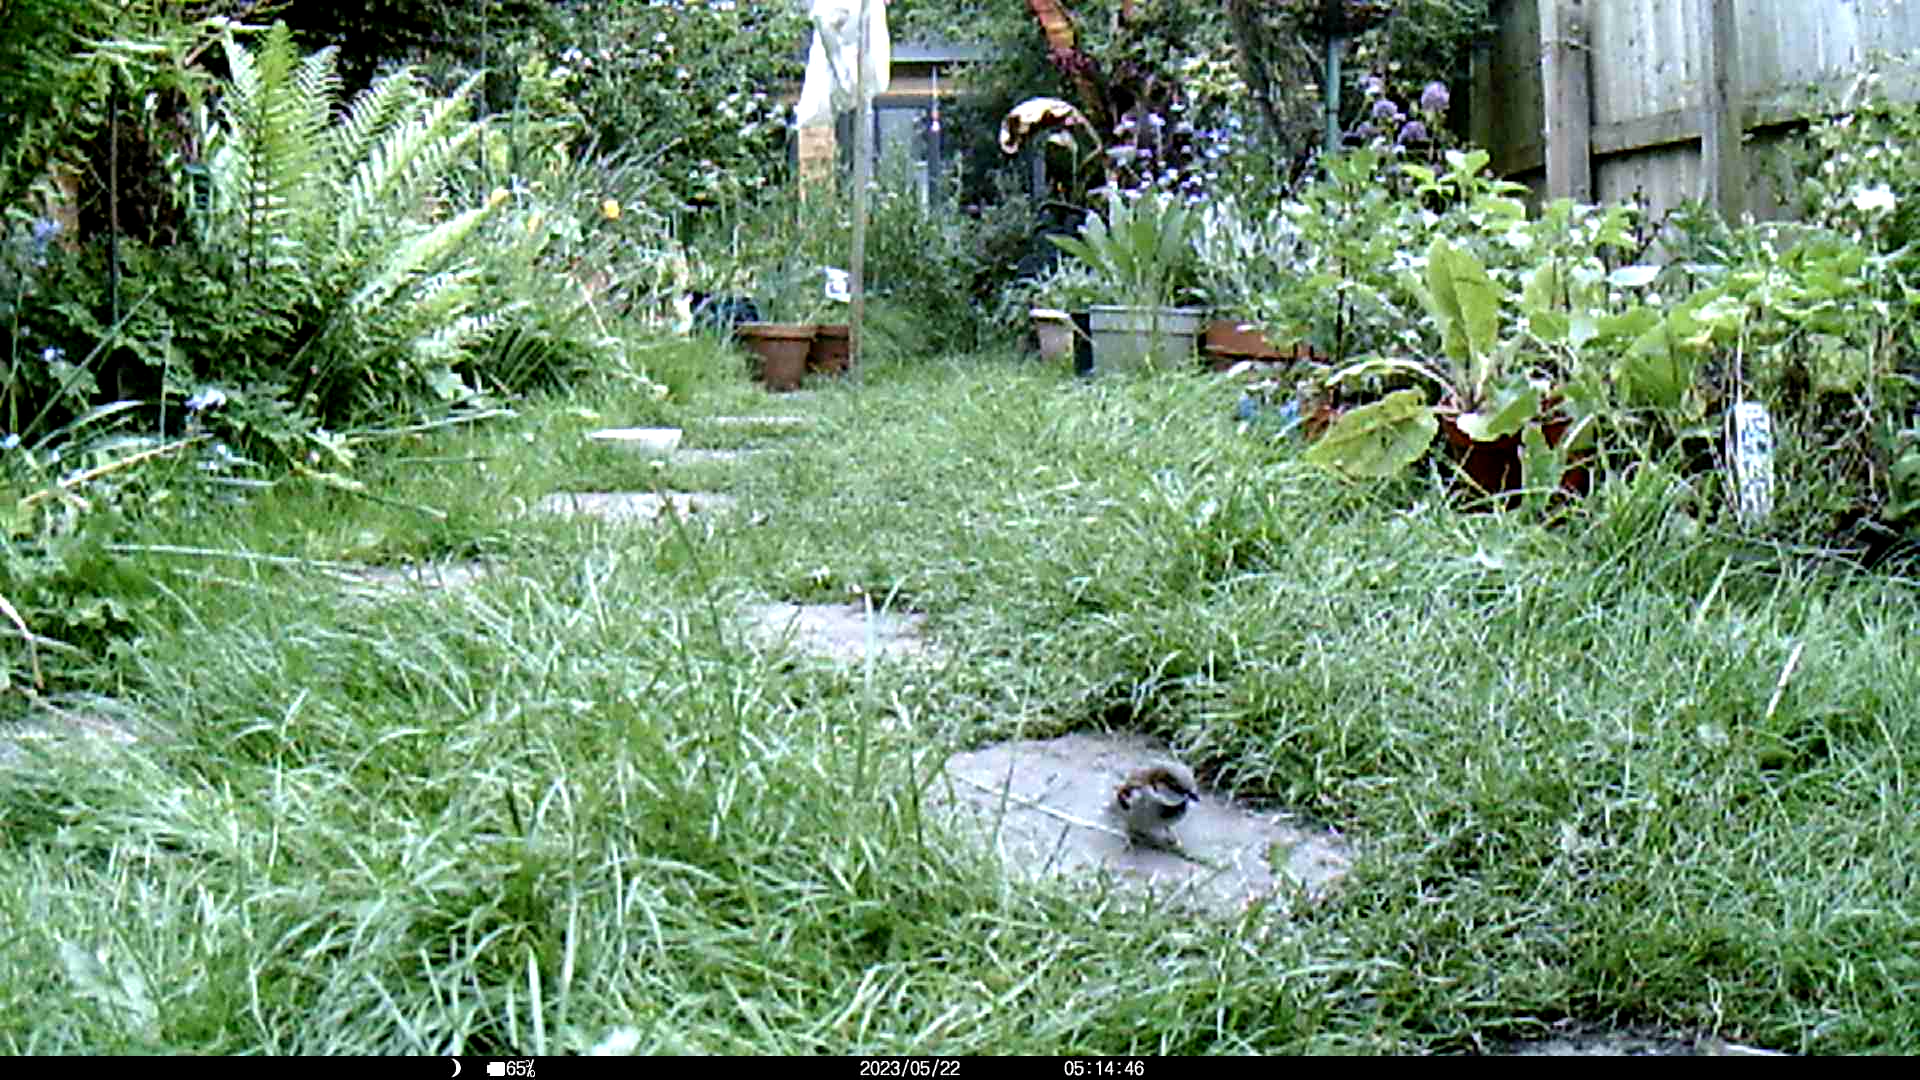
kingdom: Animalia
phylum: Chordata
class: Aves
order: Passeriformes
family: Passeridae
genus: Passer
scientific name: Passer domesticus
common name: House sparrow
